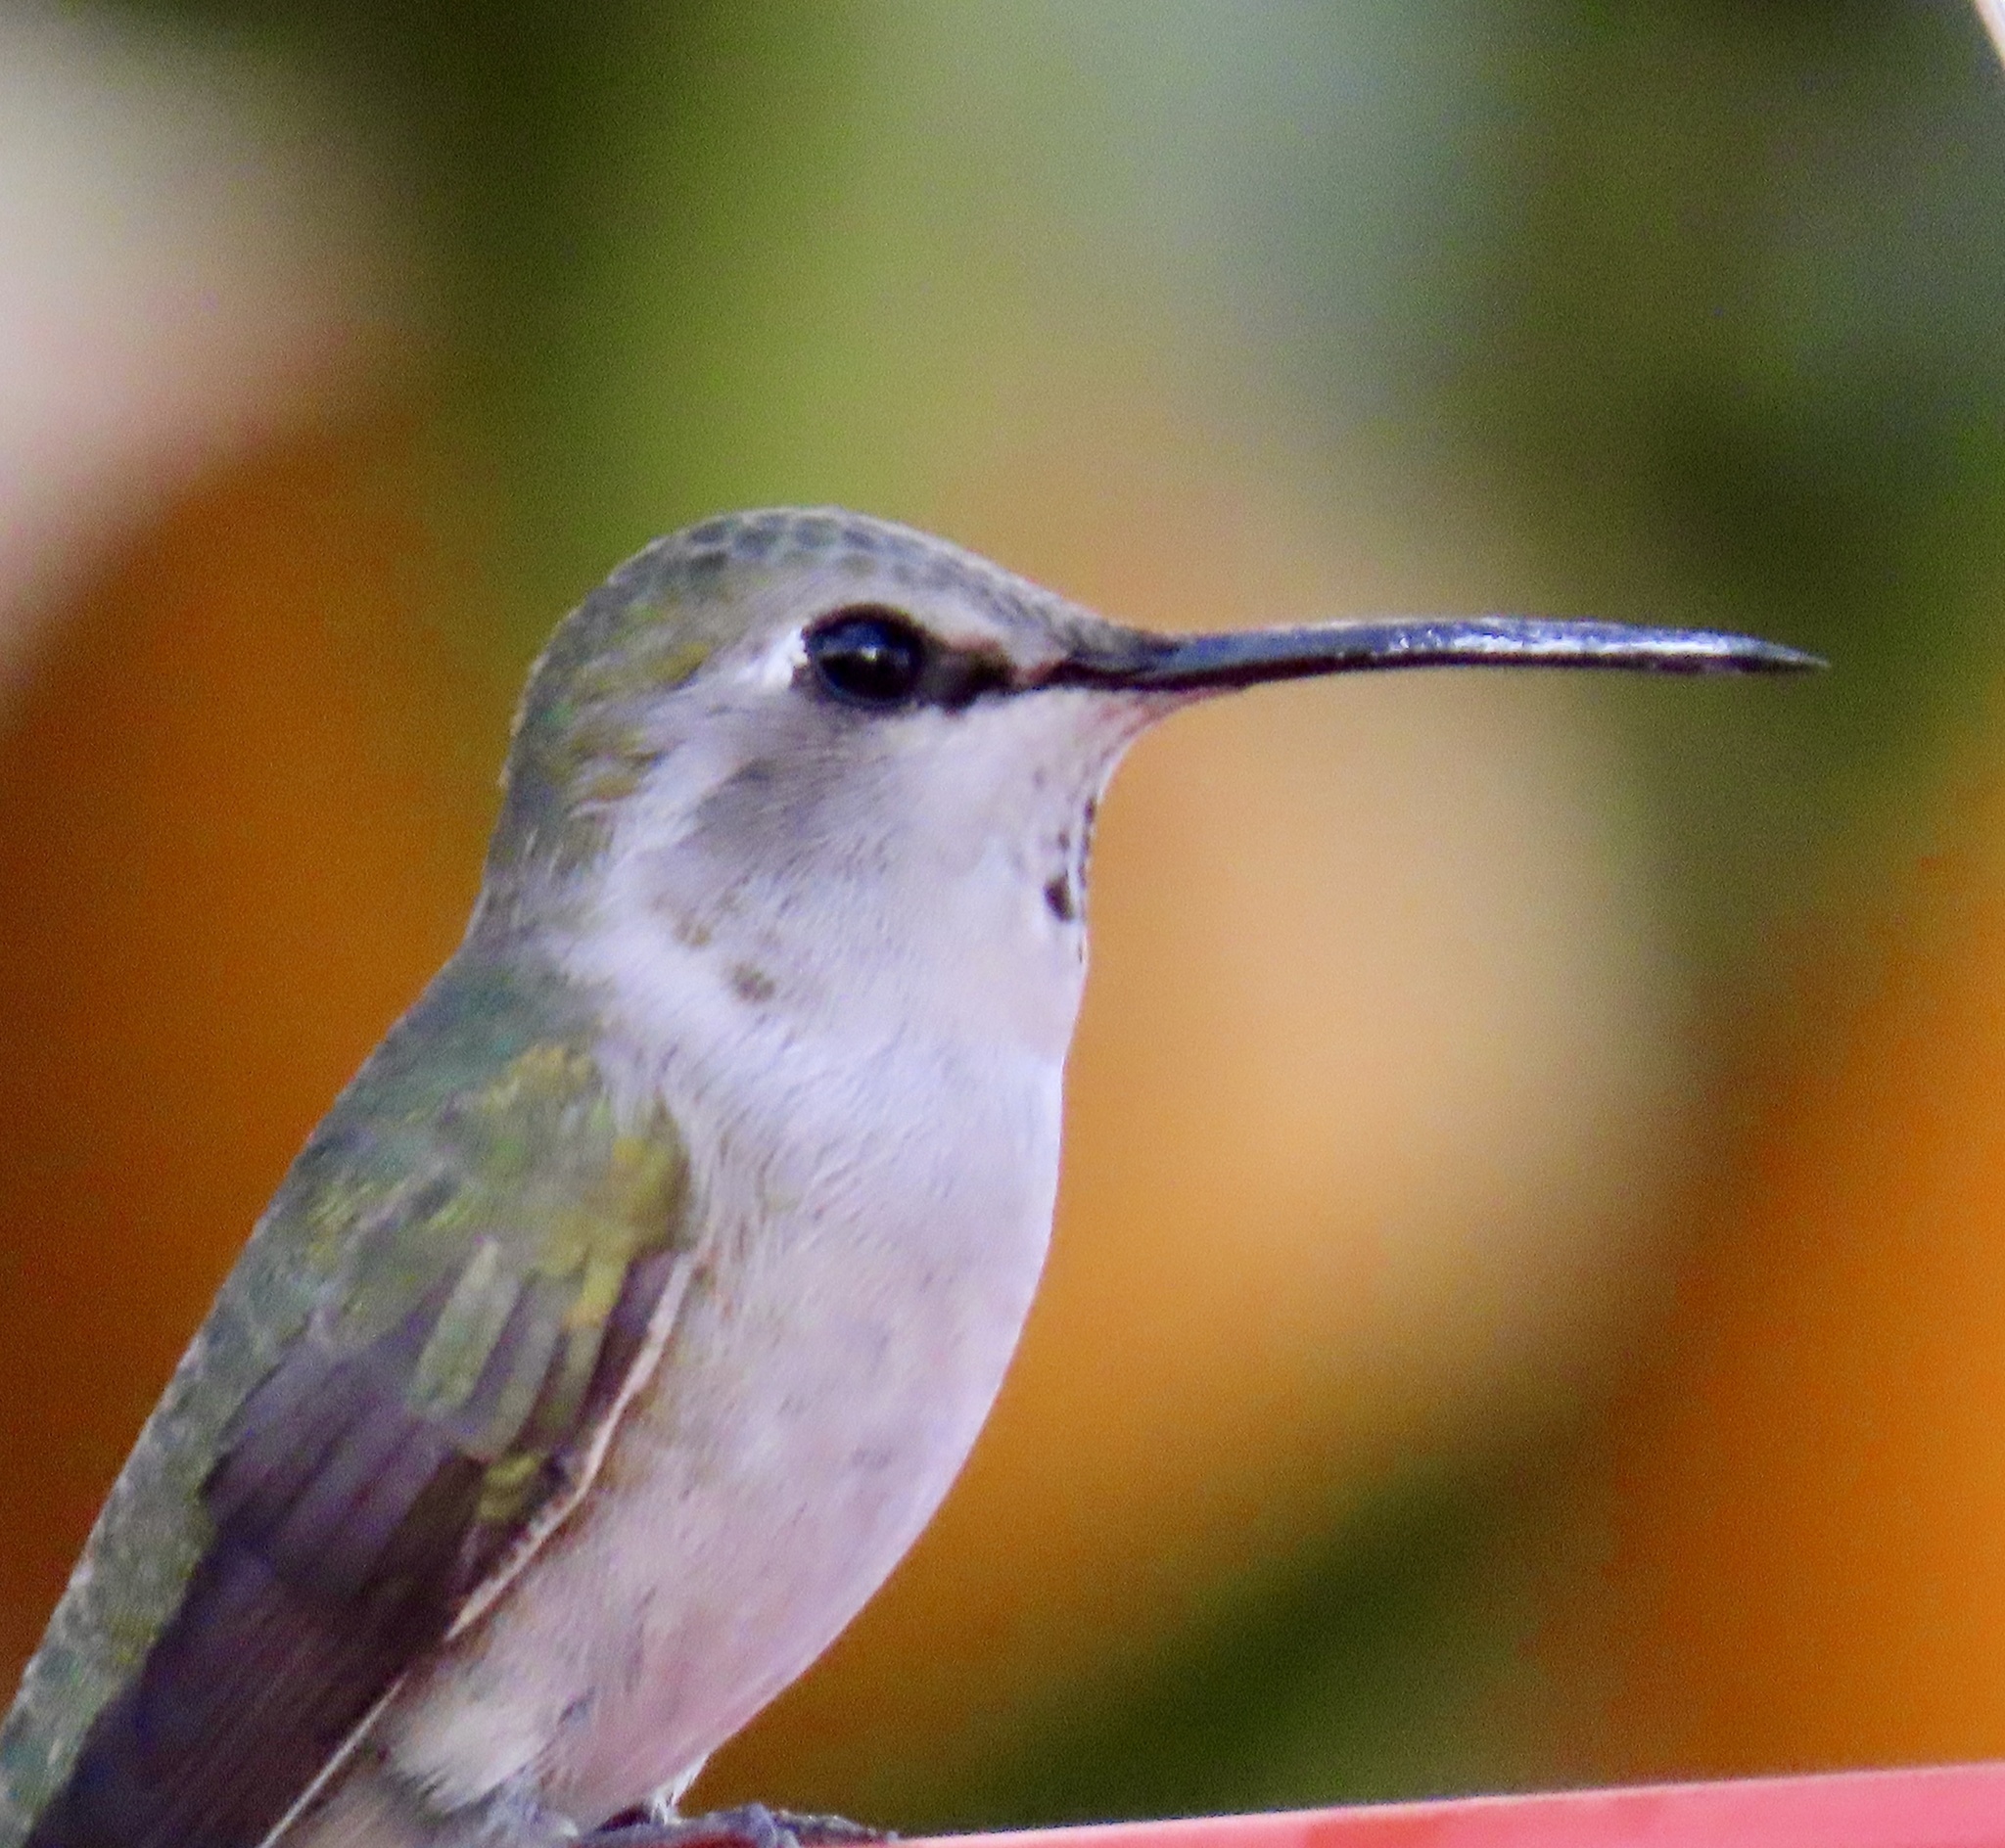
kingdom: Animalia
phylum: Chordata
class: Aves
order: Apodiformes
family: Trochilidae
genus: Calypte
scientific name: Calypte costae
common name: Costa's hummingbird
